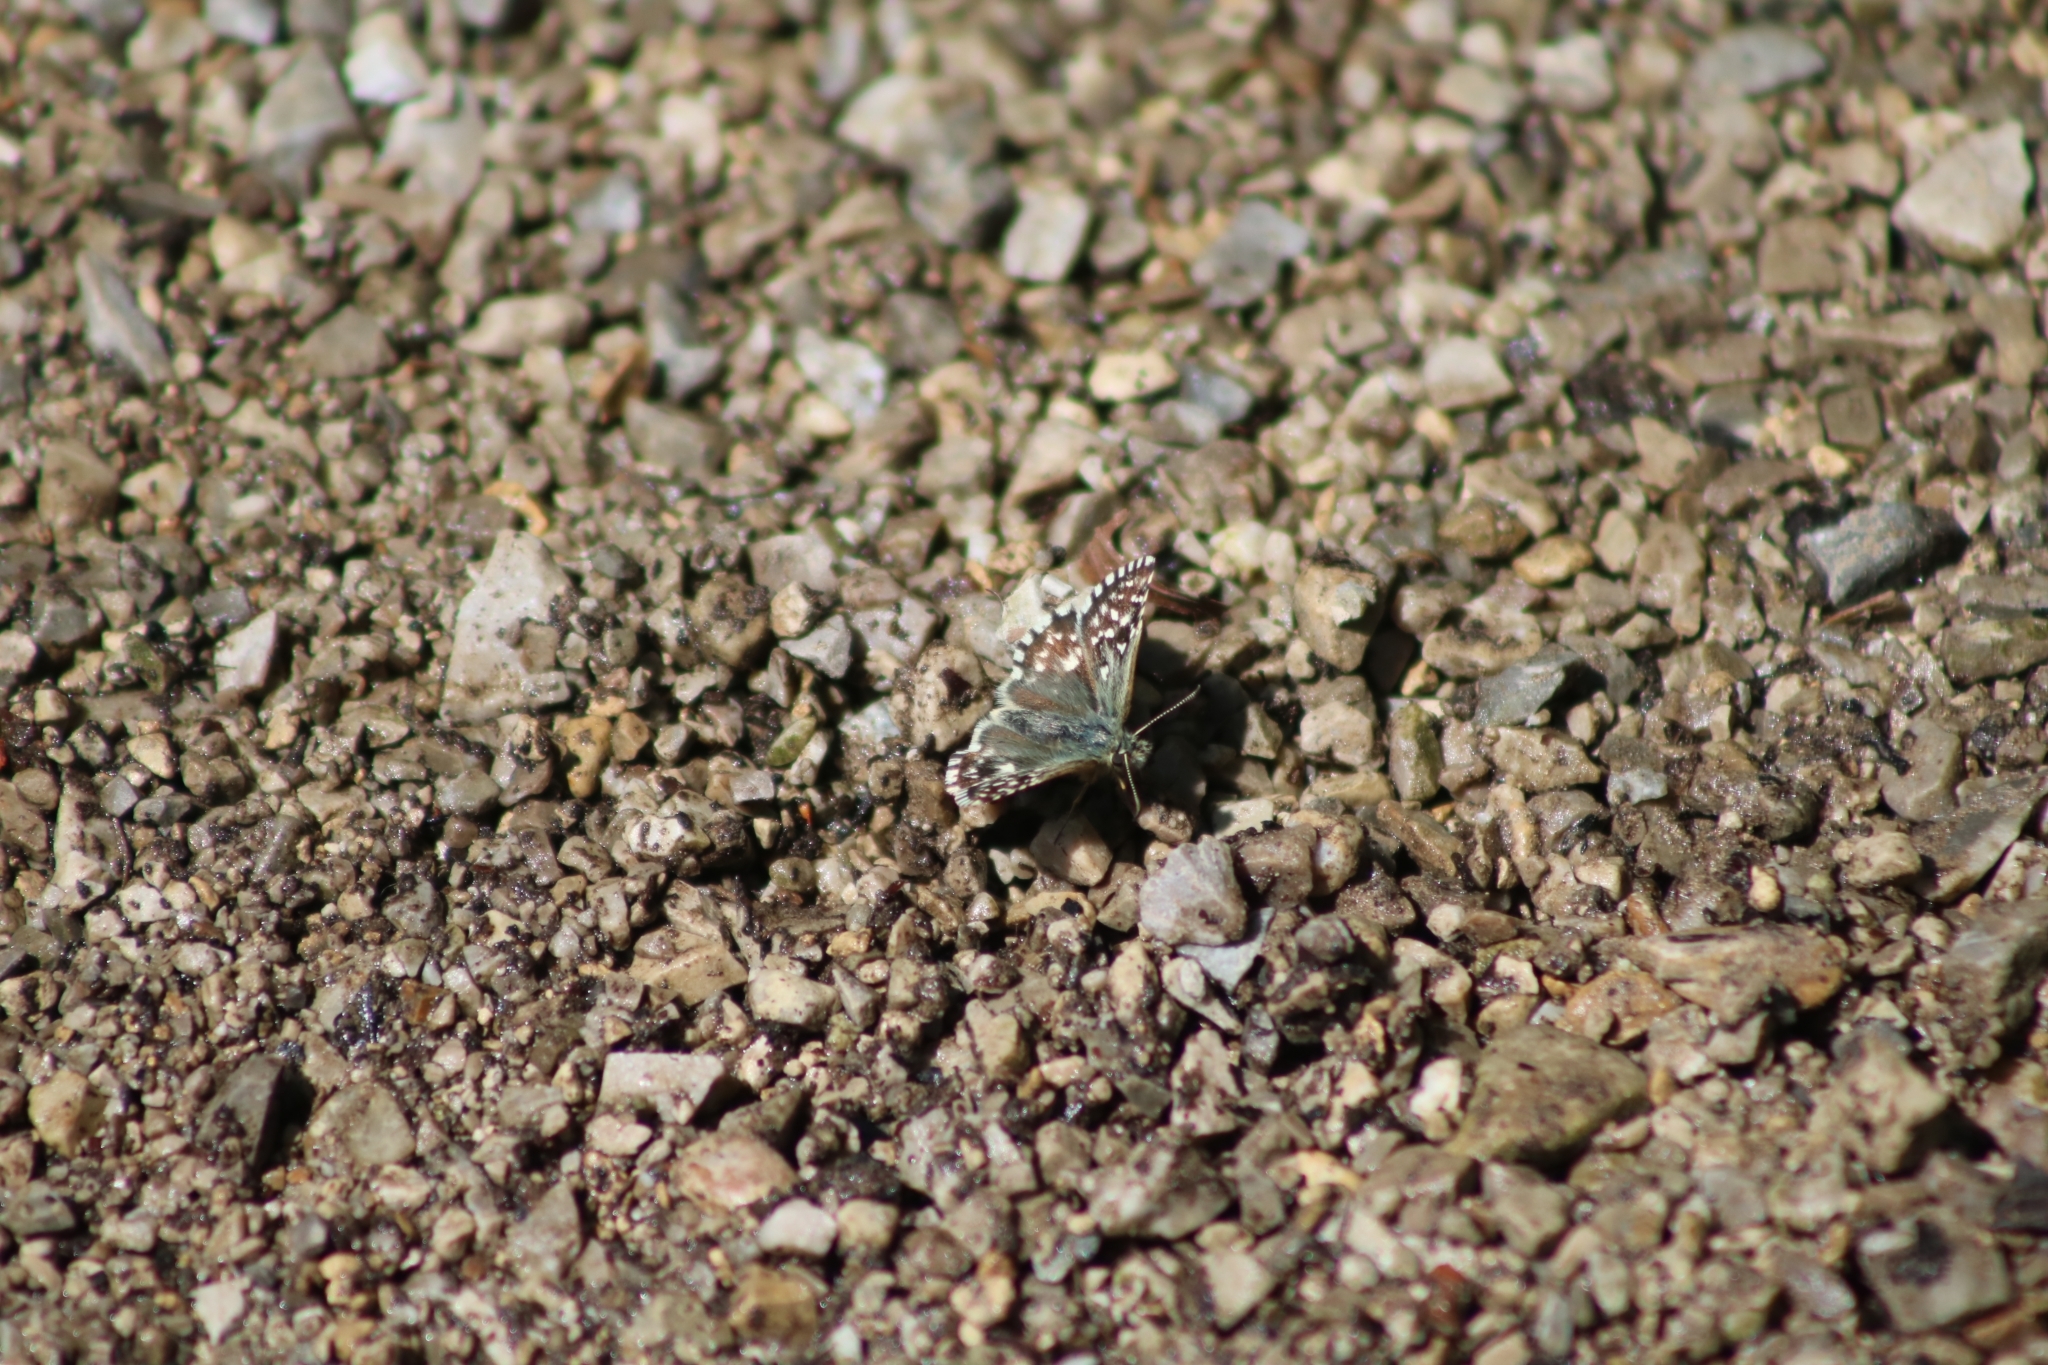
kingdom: Animalia
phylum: Arthropoda
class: Insecta
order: Lepidoptera
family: Hesperiidae
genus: Pyrgus
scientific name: Pyrgus malvae
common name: Grizzled skipper
